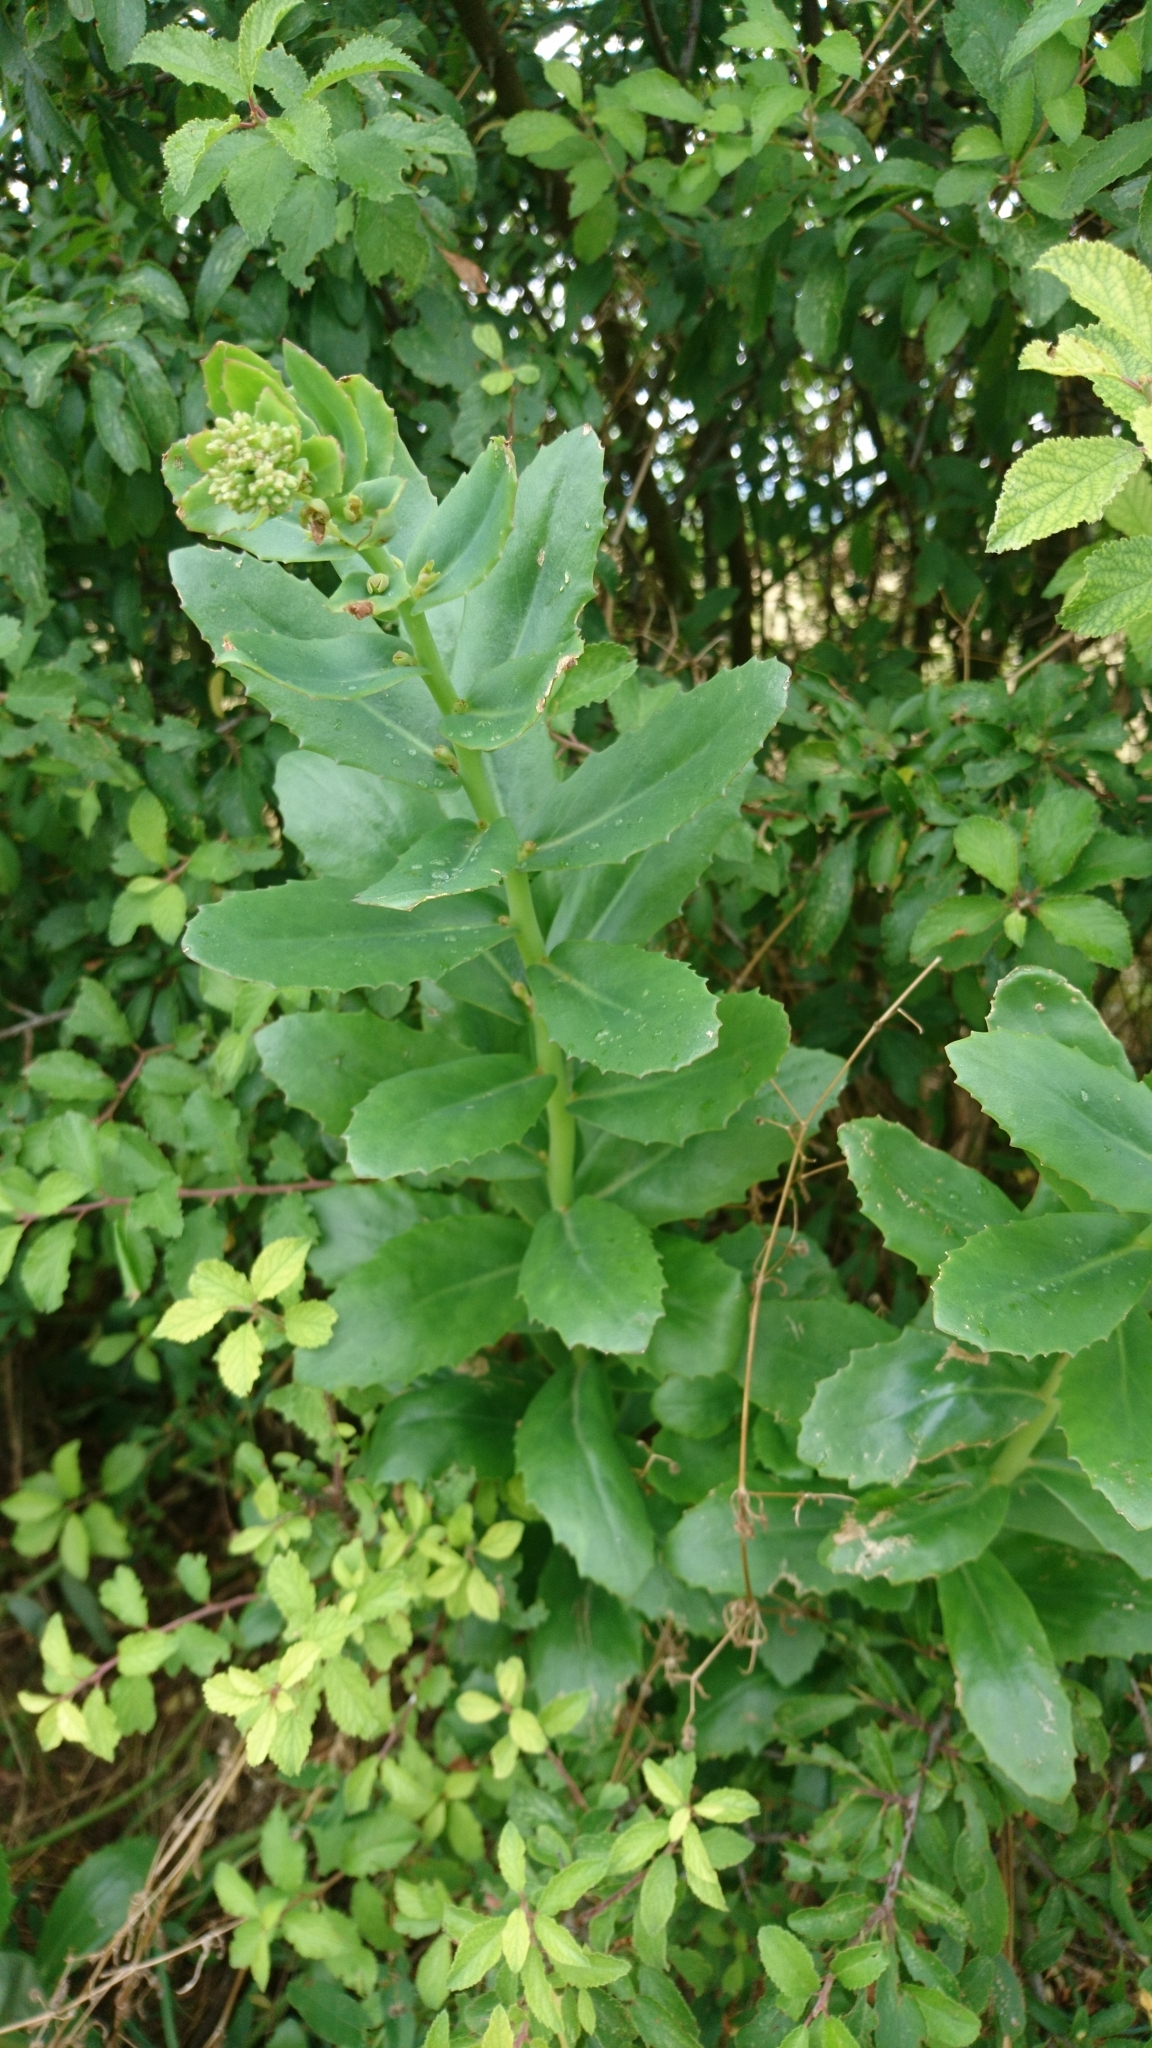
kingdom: Plantae
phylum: Tracheophyta
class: Magnoliopsida
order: Saxifragales
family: Crassulaceae
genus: Hylotelephium
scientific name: Hylotelephium telephium
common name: Live-forever
